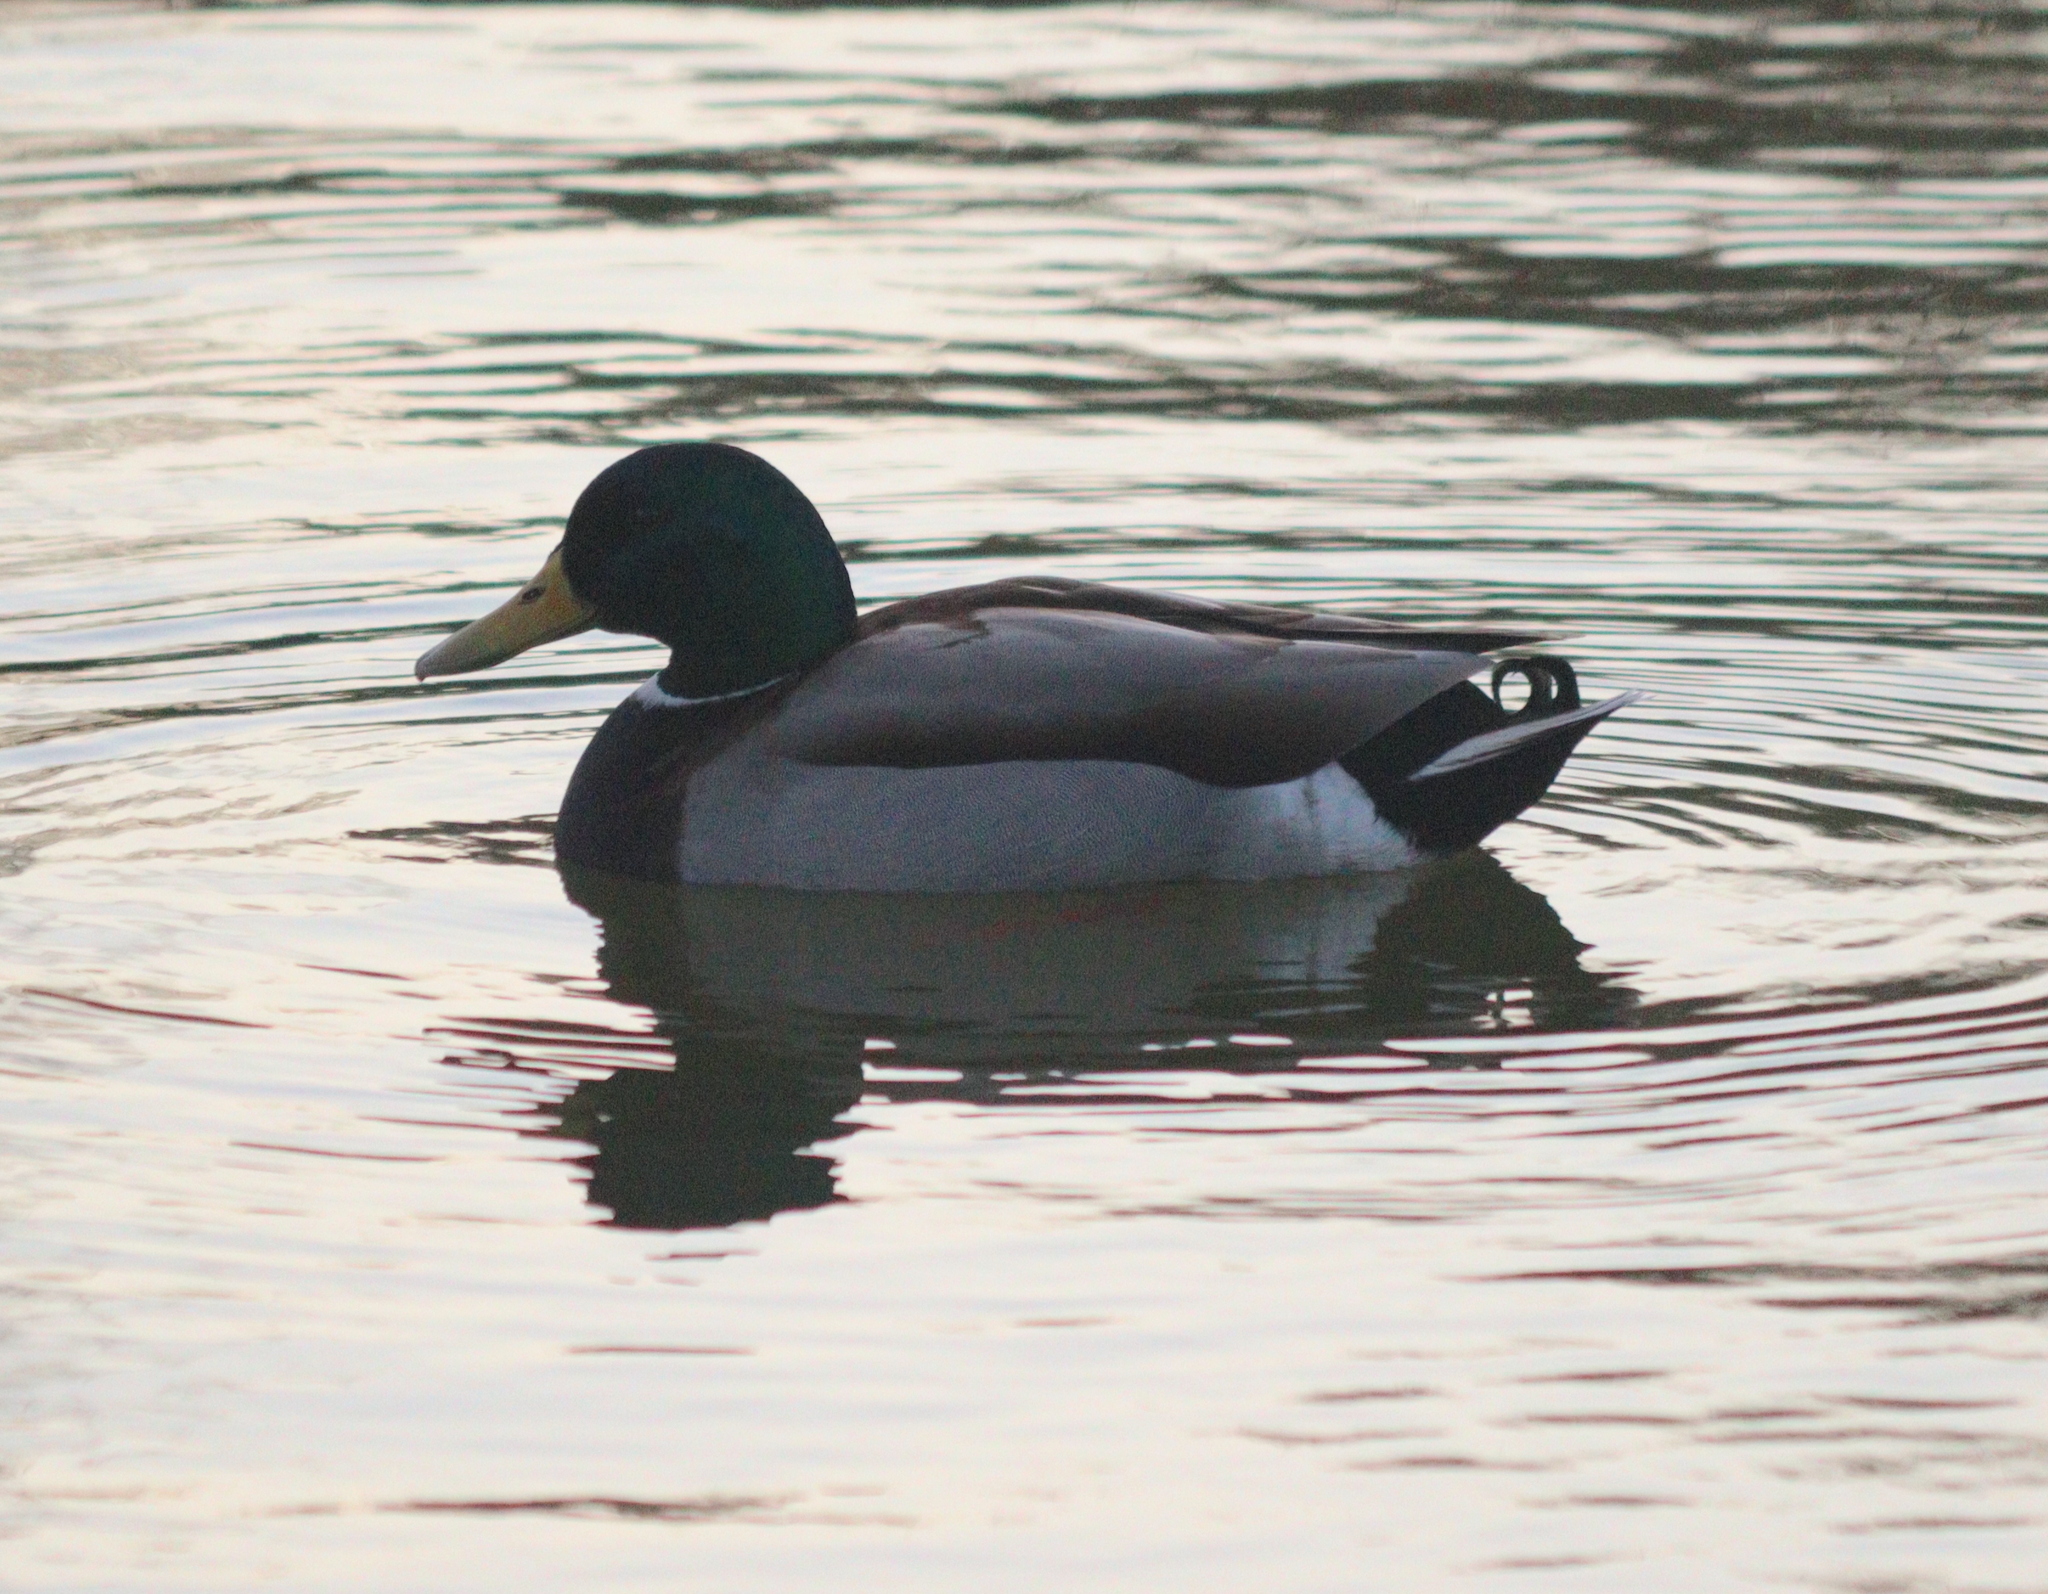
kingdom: Animalia
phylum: Chordata
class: Aves
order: Anseriformes
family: Anatidae
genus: Anas
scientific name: Anas platyrhynchos
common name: Mallard
